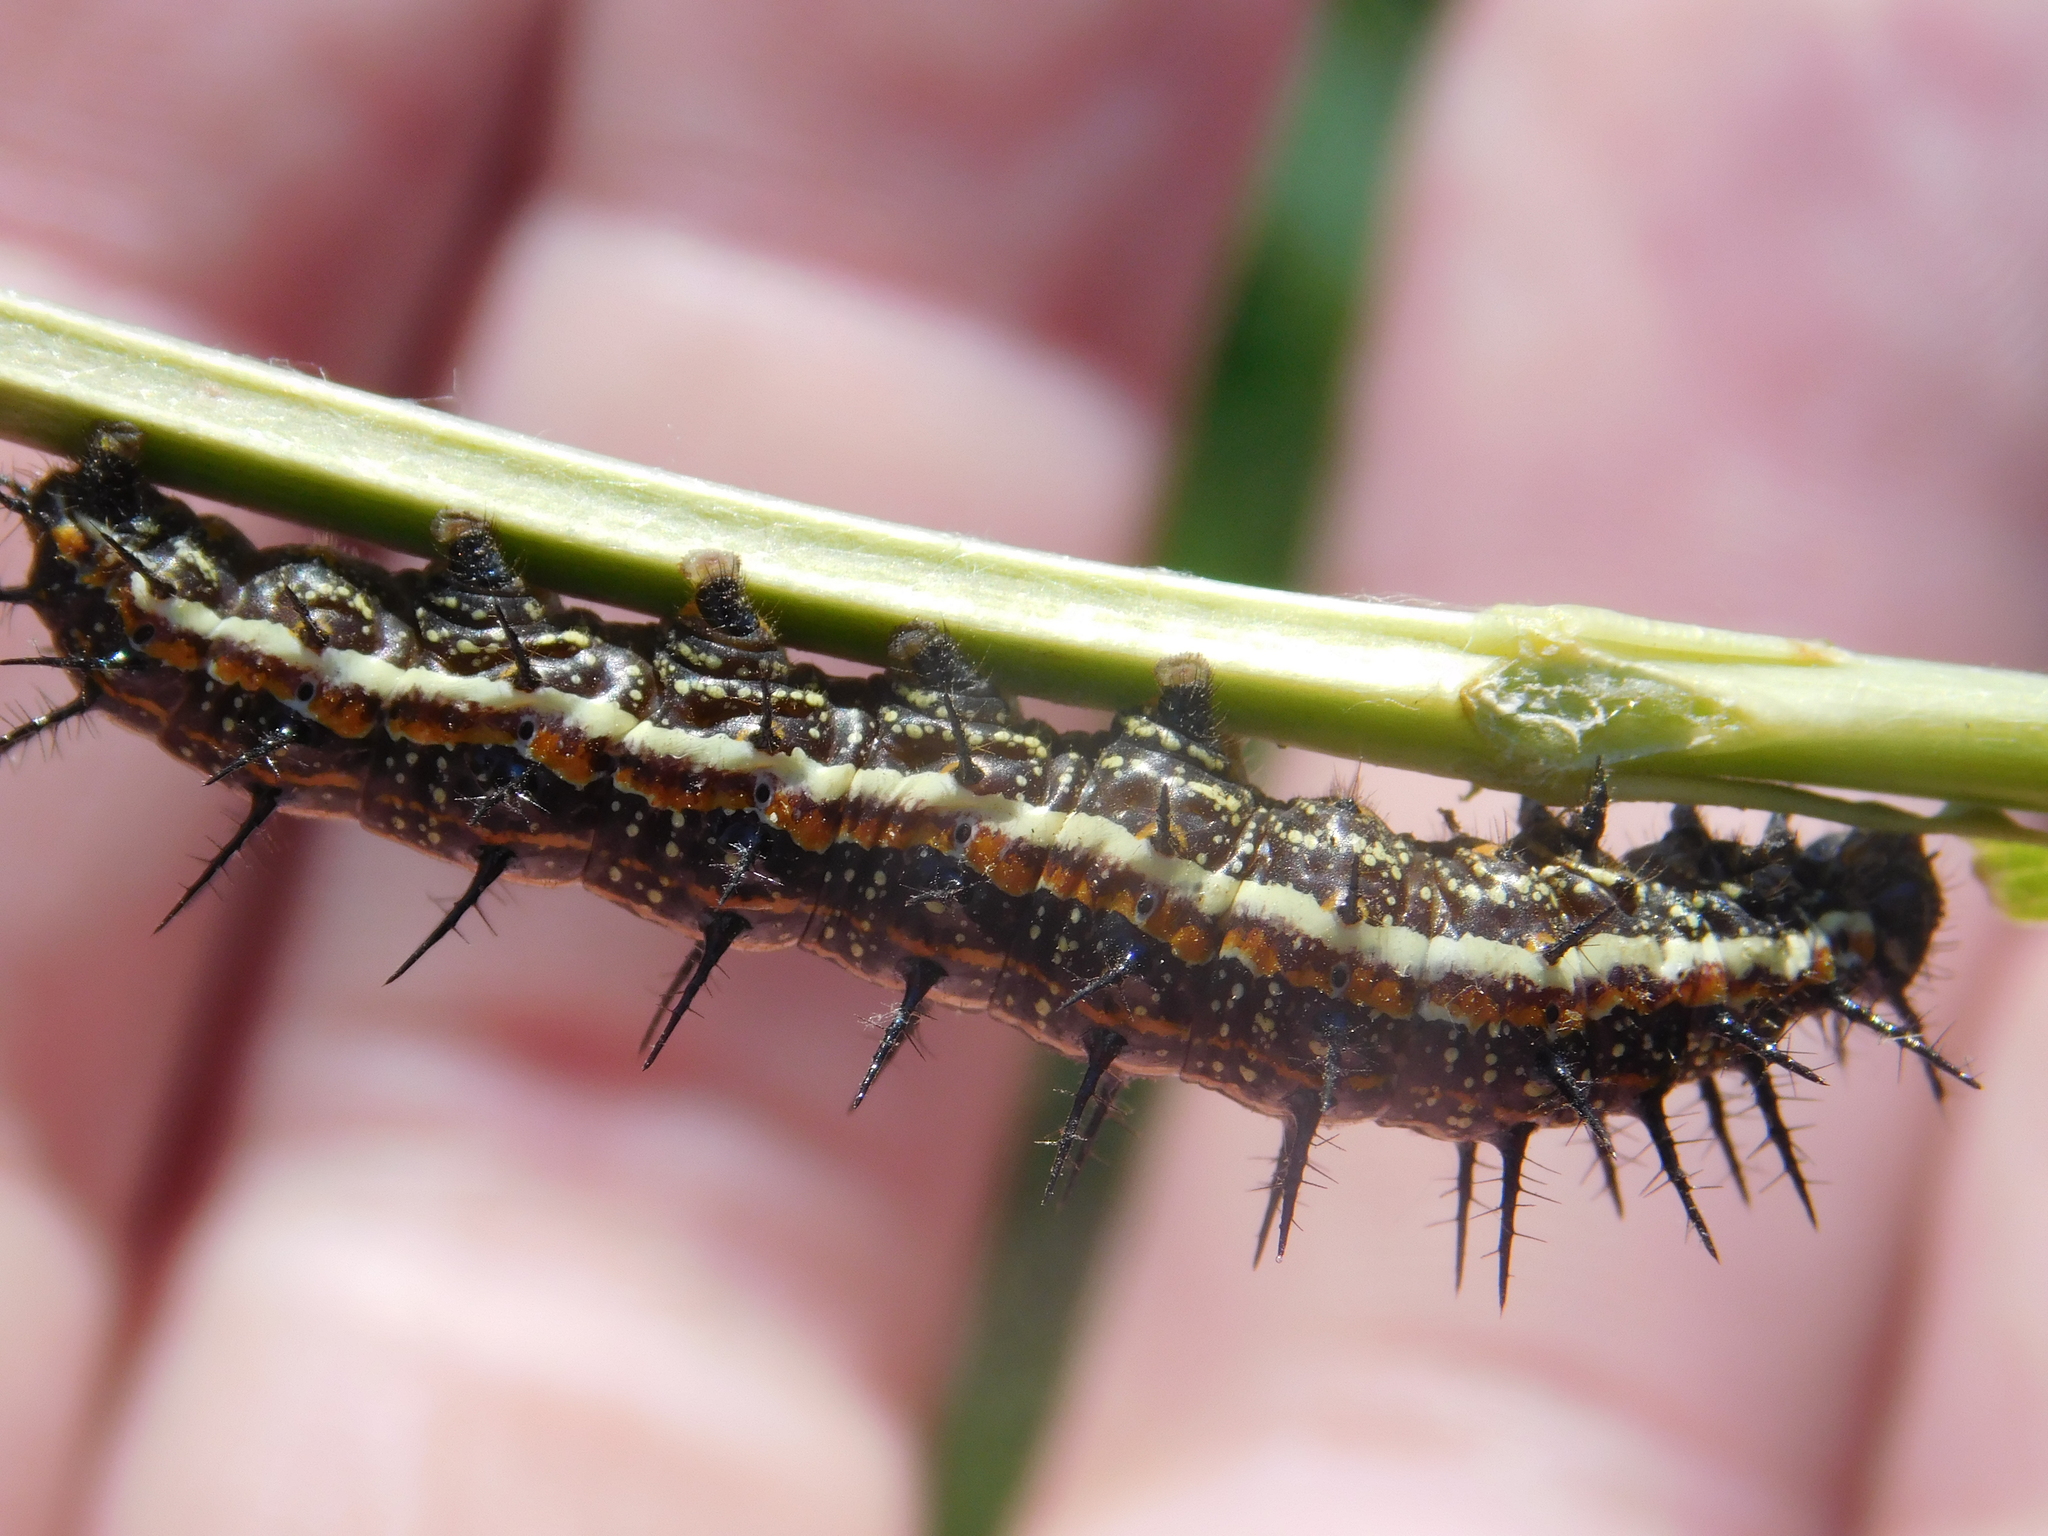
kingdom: Animalia
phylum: Arthropoda
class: Insecta
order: Lepidoptera
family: Nymphalidae
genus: Dione
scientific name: Dione vanillae
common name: Gulf fritillary
